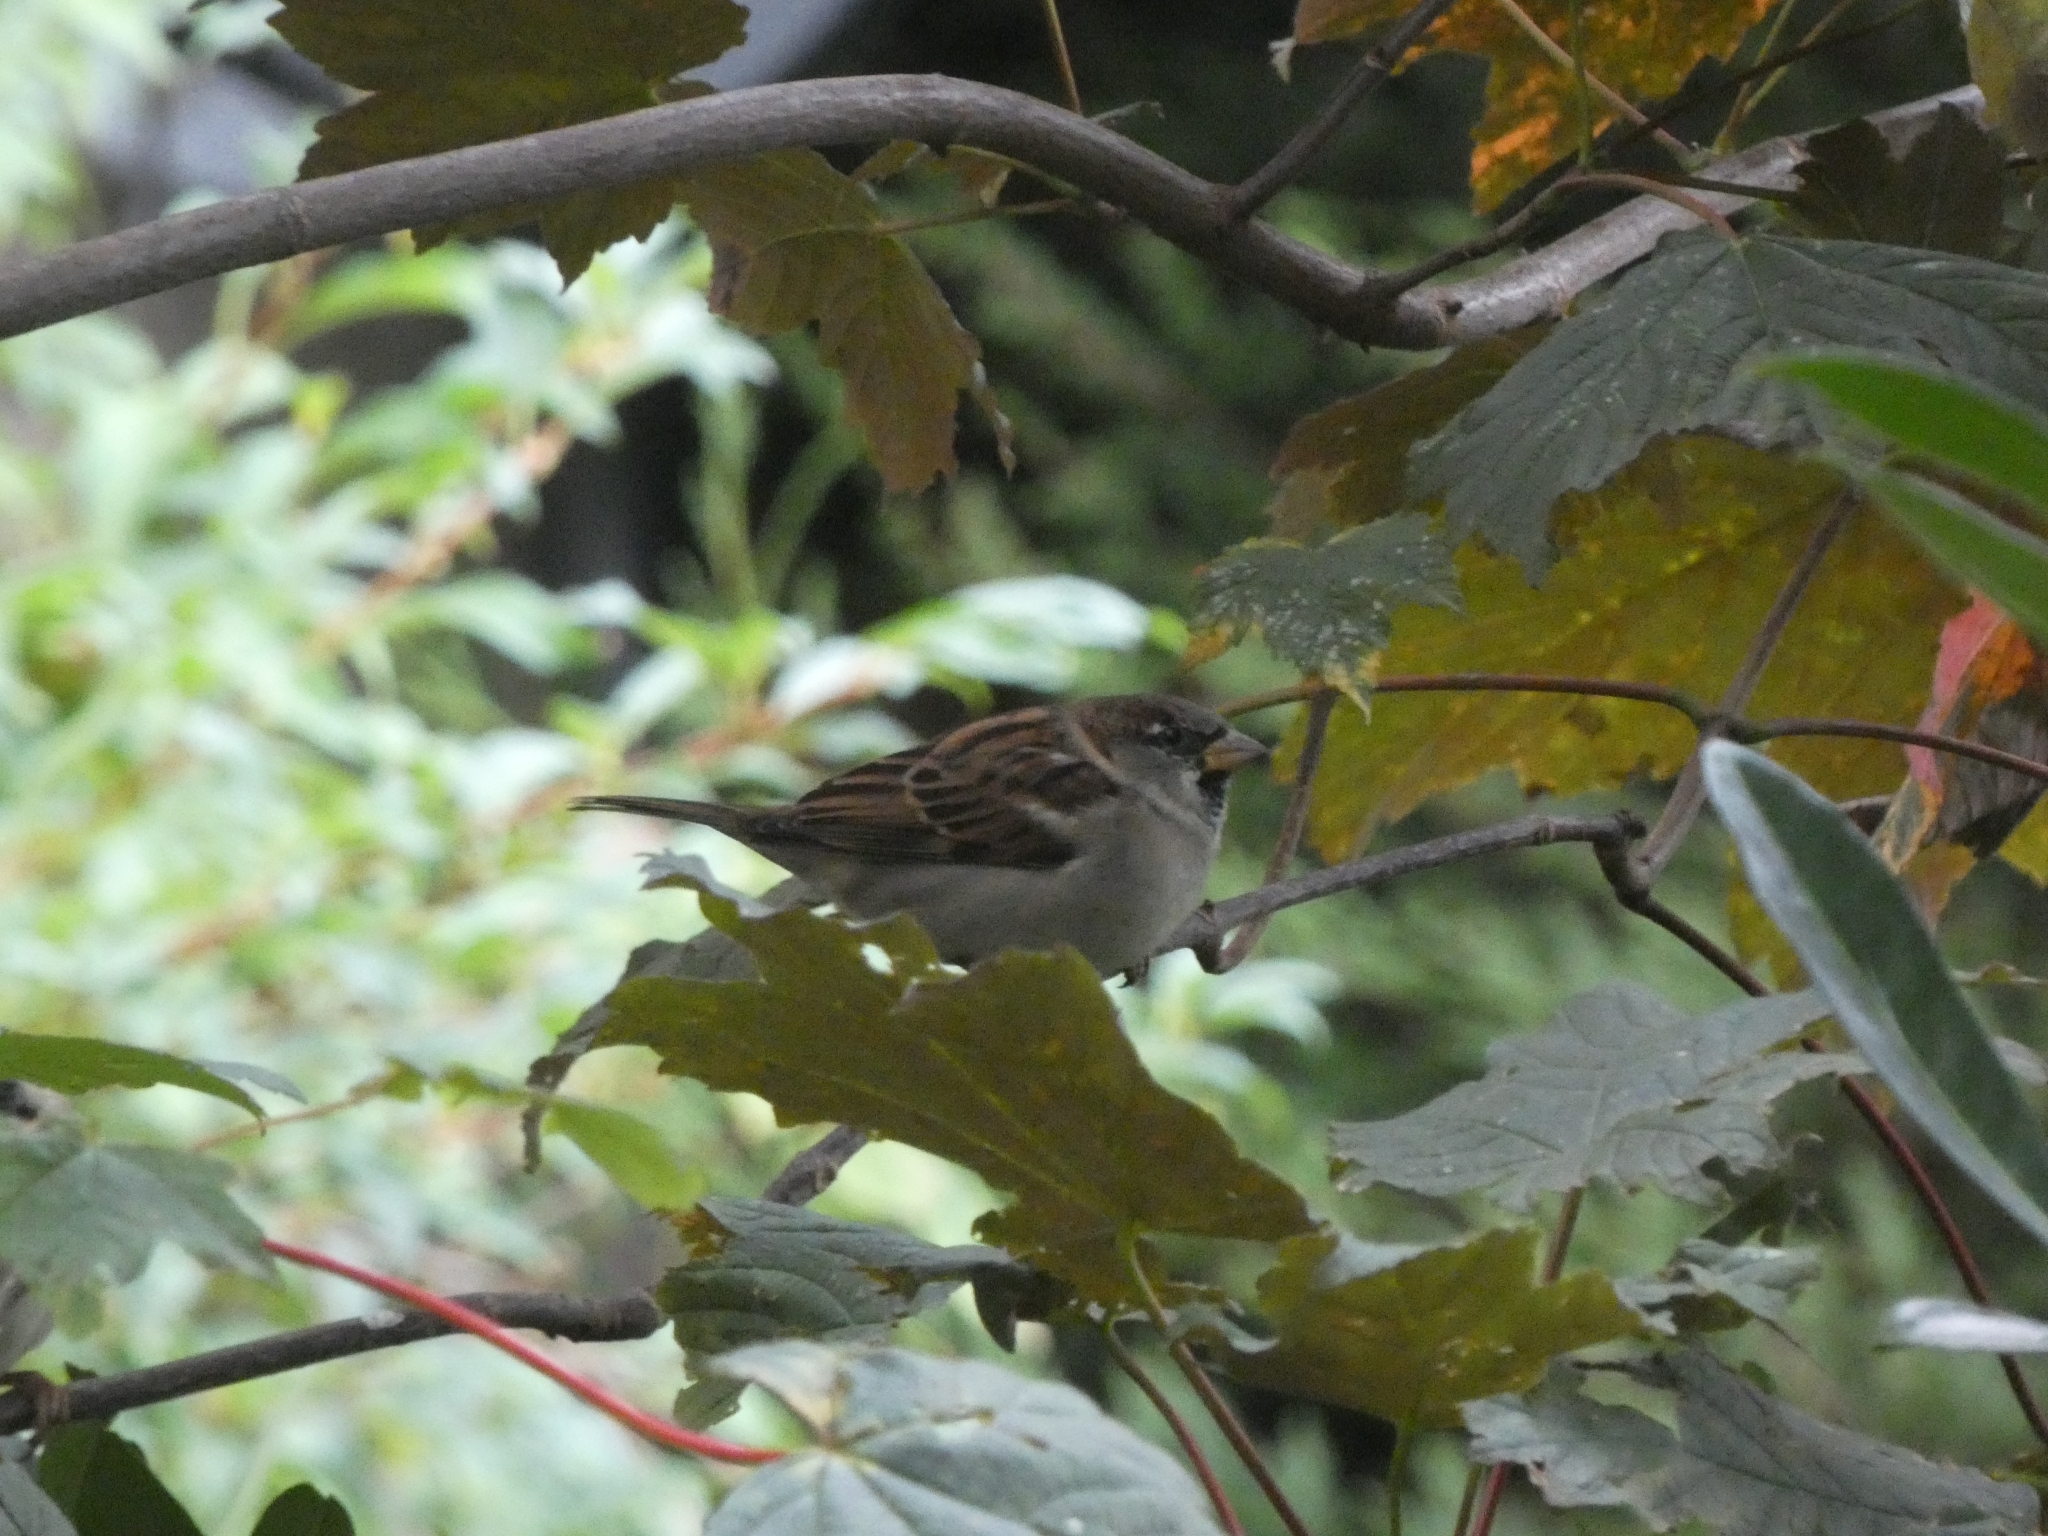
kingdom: Animalia
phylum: Chordata
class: Aves
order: Passeriformes
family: Passeridae
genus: Passer
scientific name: Passer domesticus
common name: House sparrow
